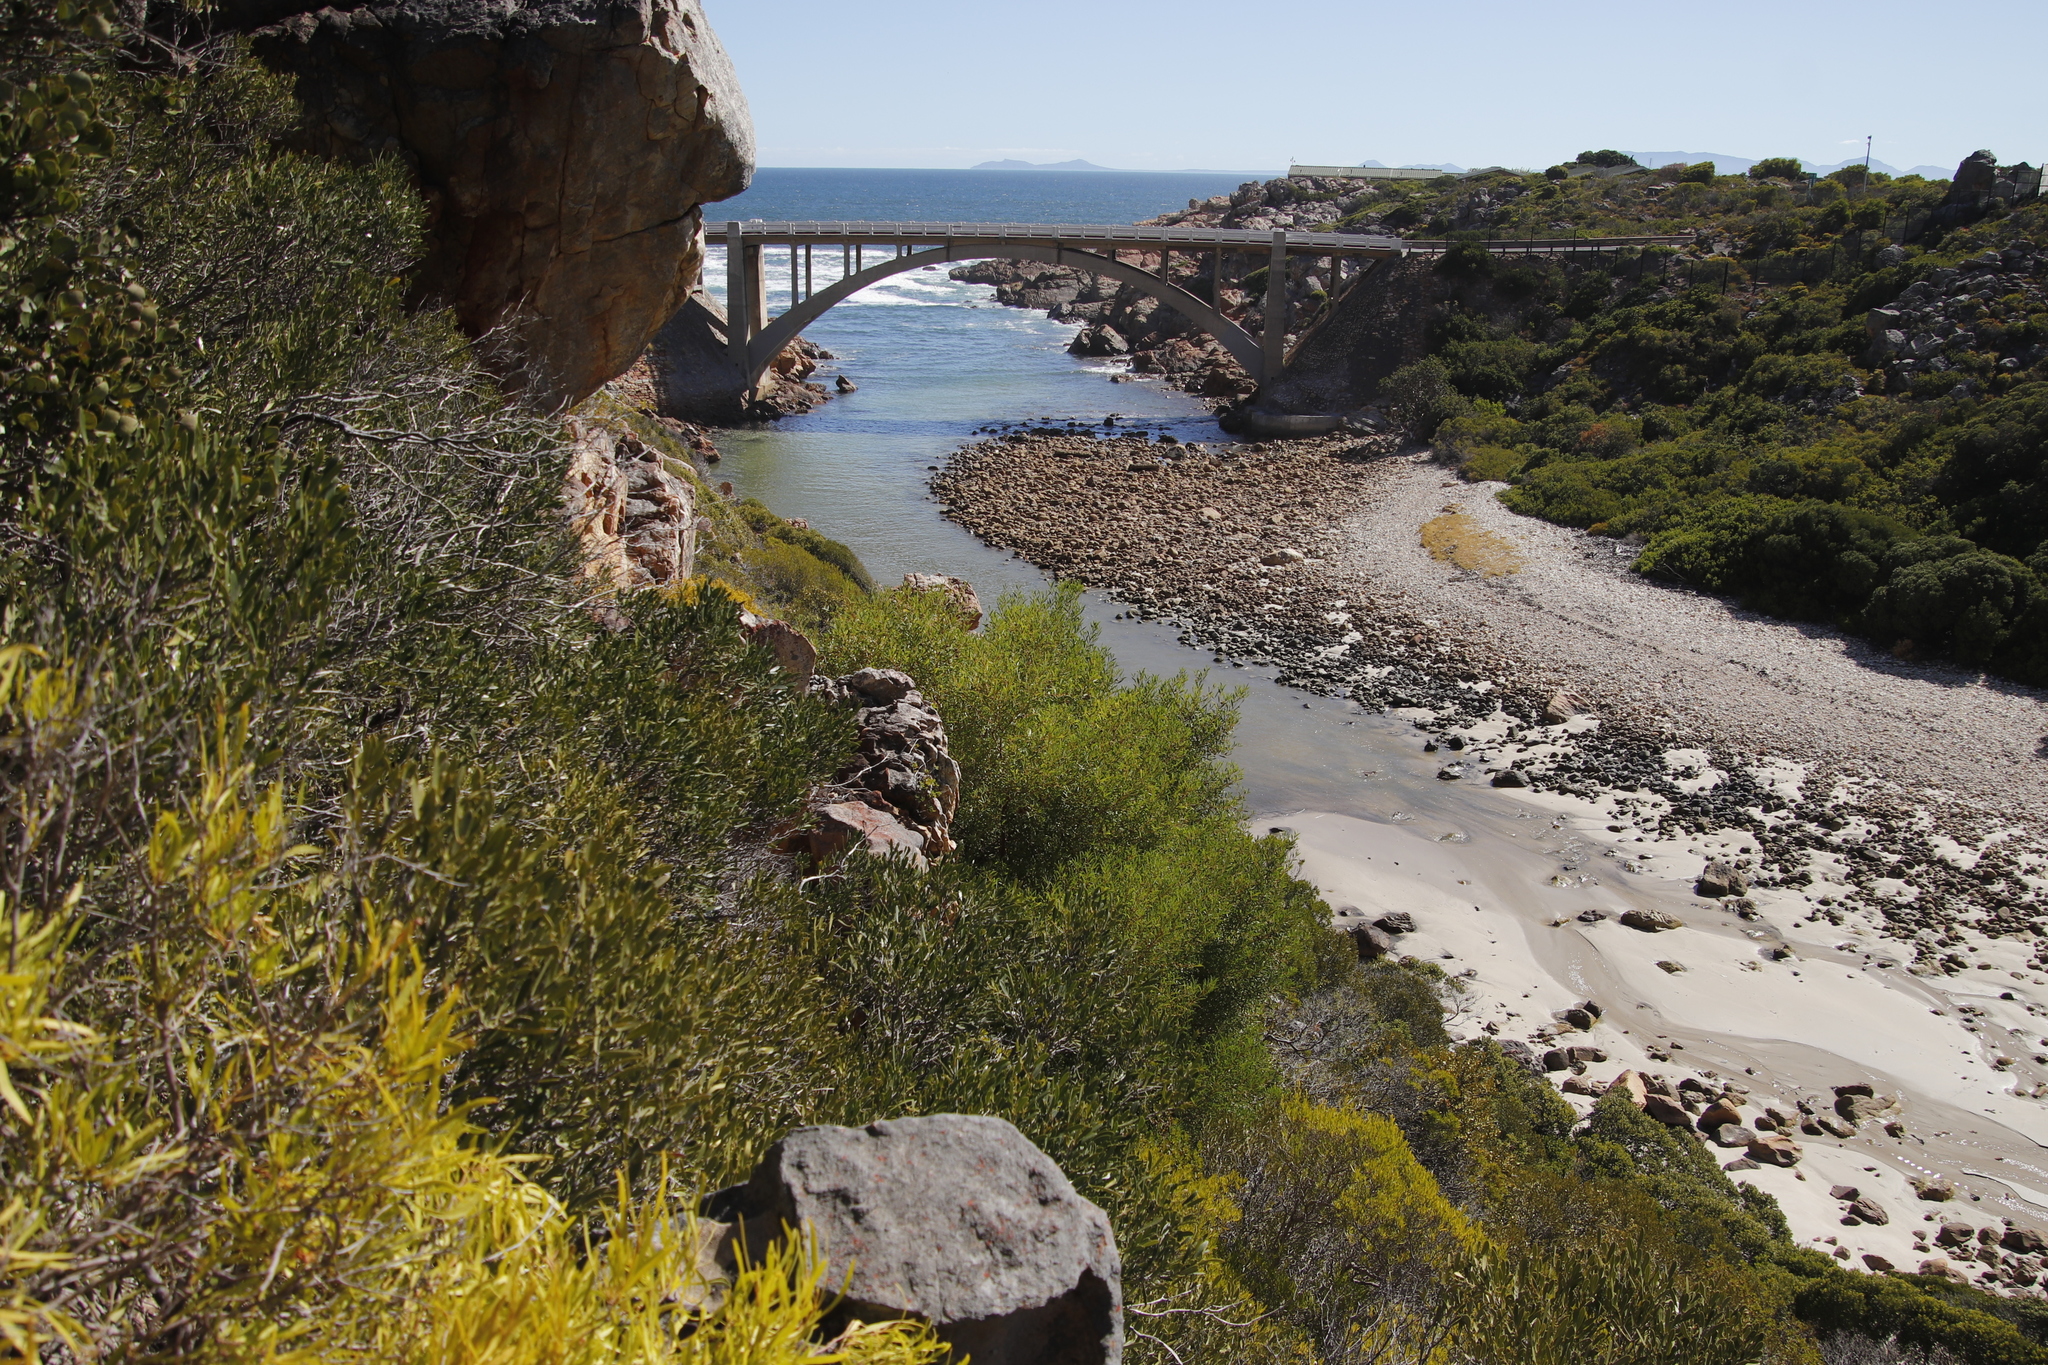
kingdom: Plantae
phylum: Tracheophyta
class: Magnoliopsida
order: Fabales
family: Fabaceae
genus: Acacia
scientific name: Acacia cyclops
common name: Coastal wattle
